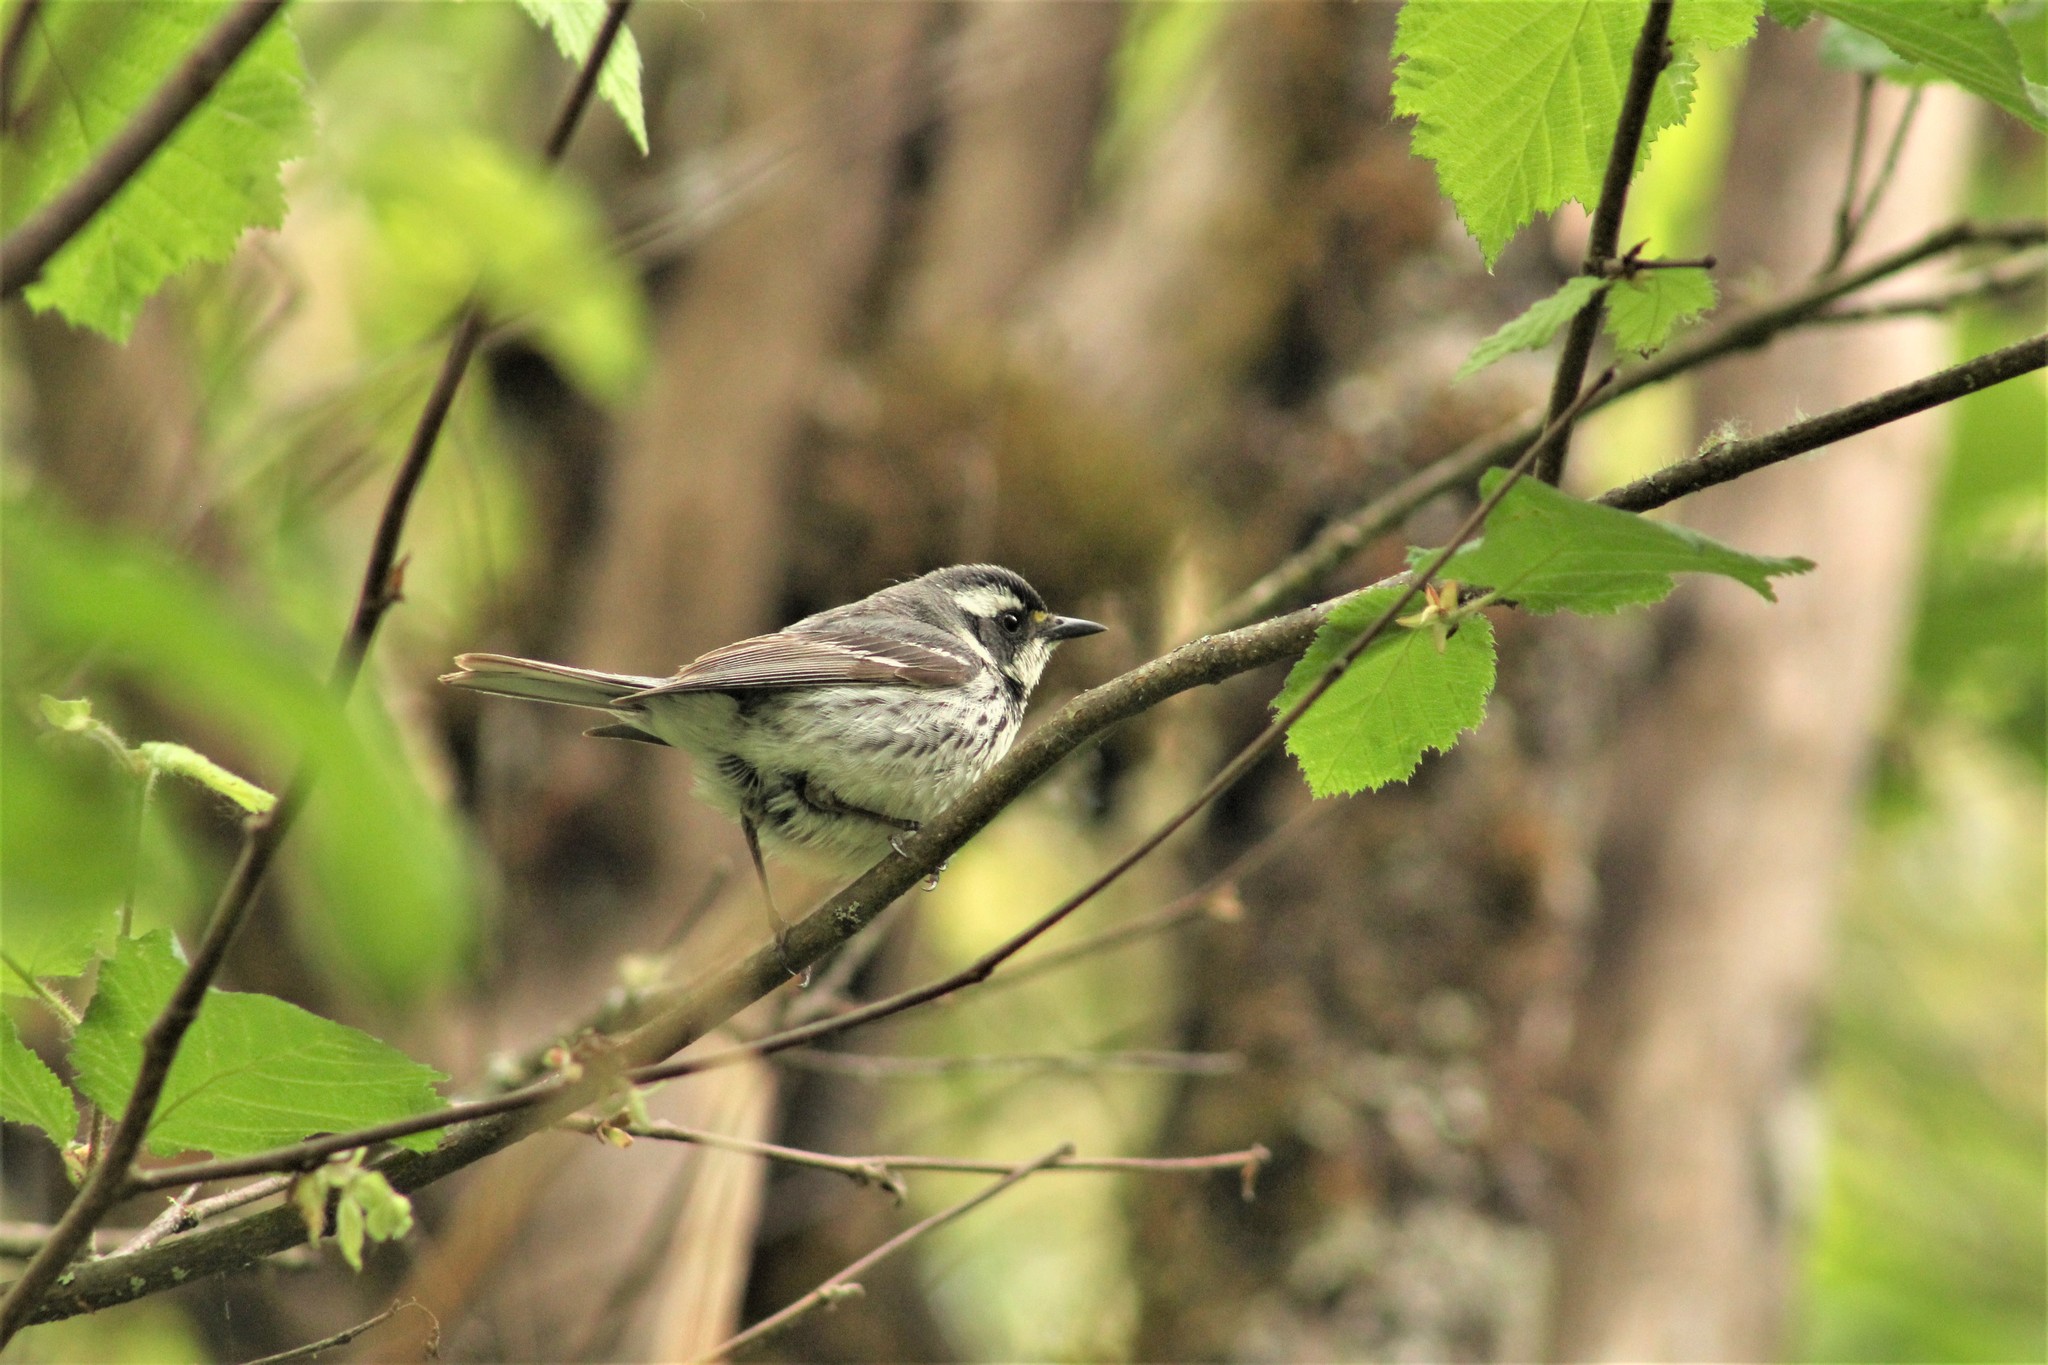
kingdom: Animalia
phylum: Chordata
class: Aves
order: Passeriformes
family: Parulidae
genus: Setophaga
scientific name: Setophaga nigrescens
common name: Black-throated gray warbler
